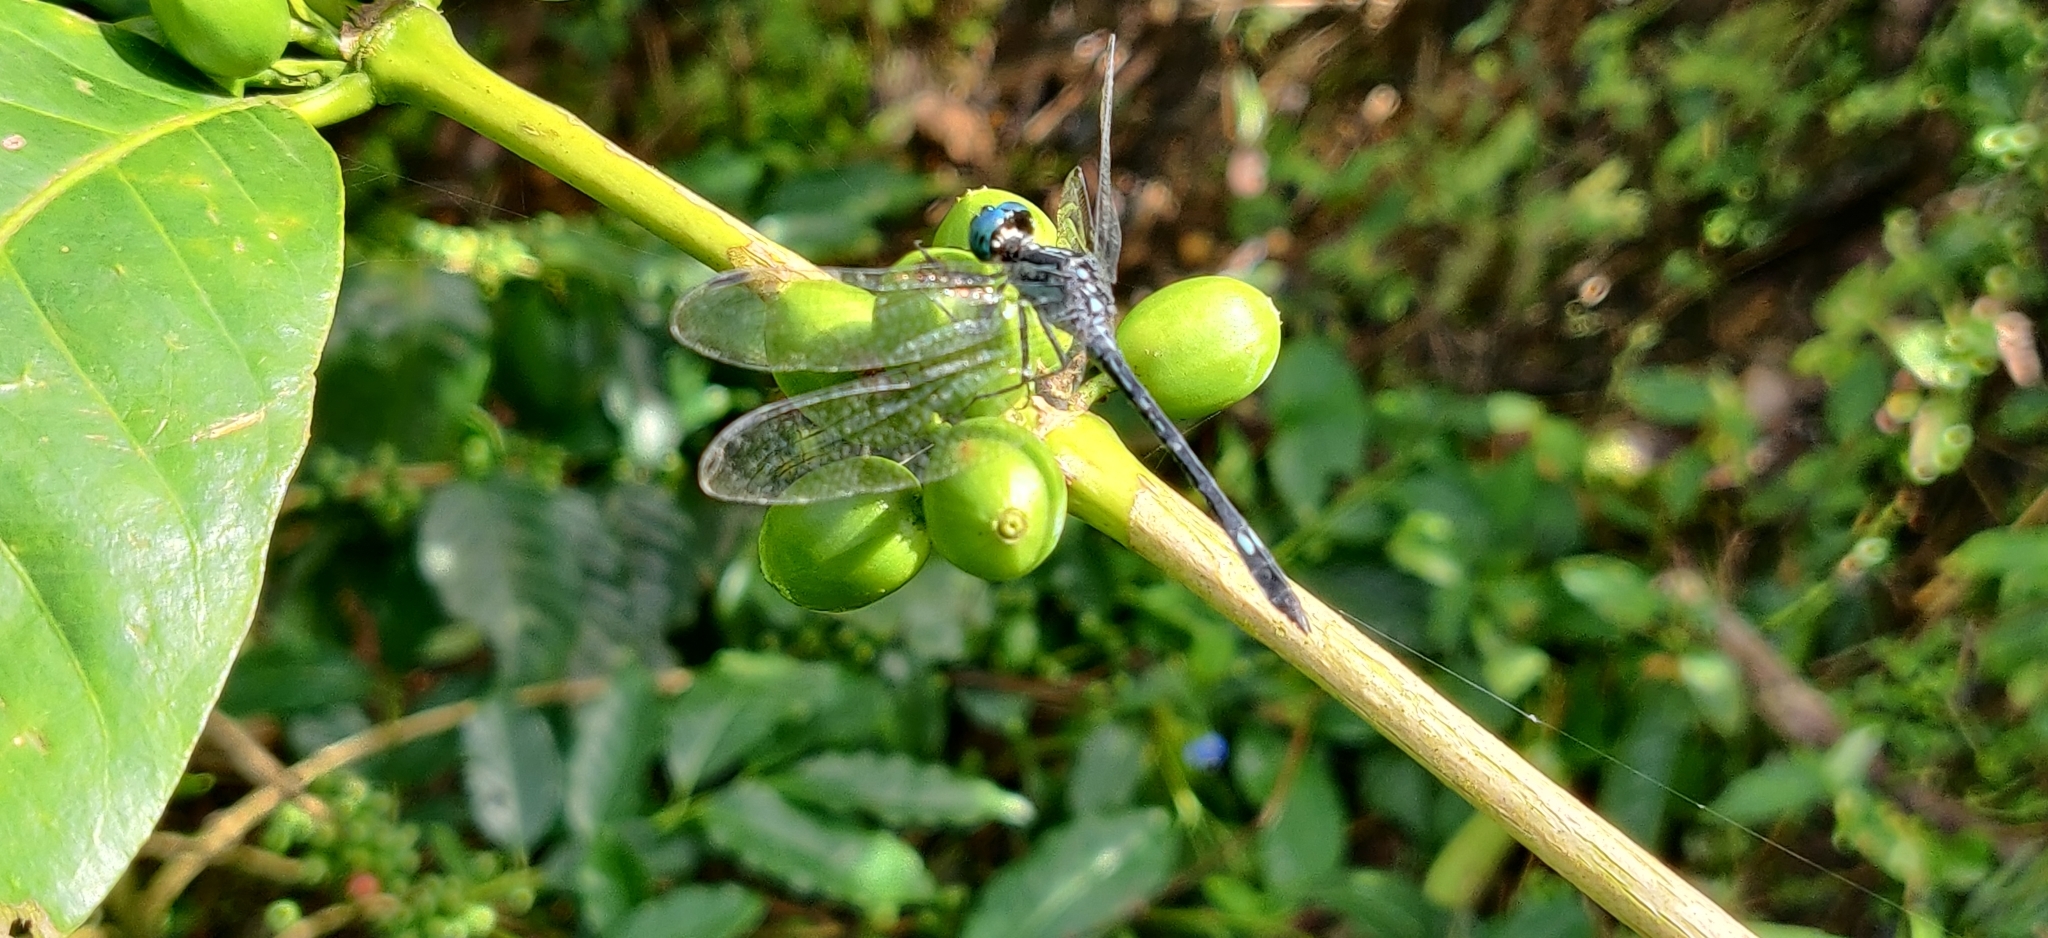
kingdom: Animalia
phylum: Arthropoda
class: Insecta
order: Odonata
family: Libellulidae
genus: Hylaeothemis
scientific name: Hylaeothemis apicalis
